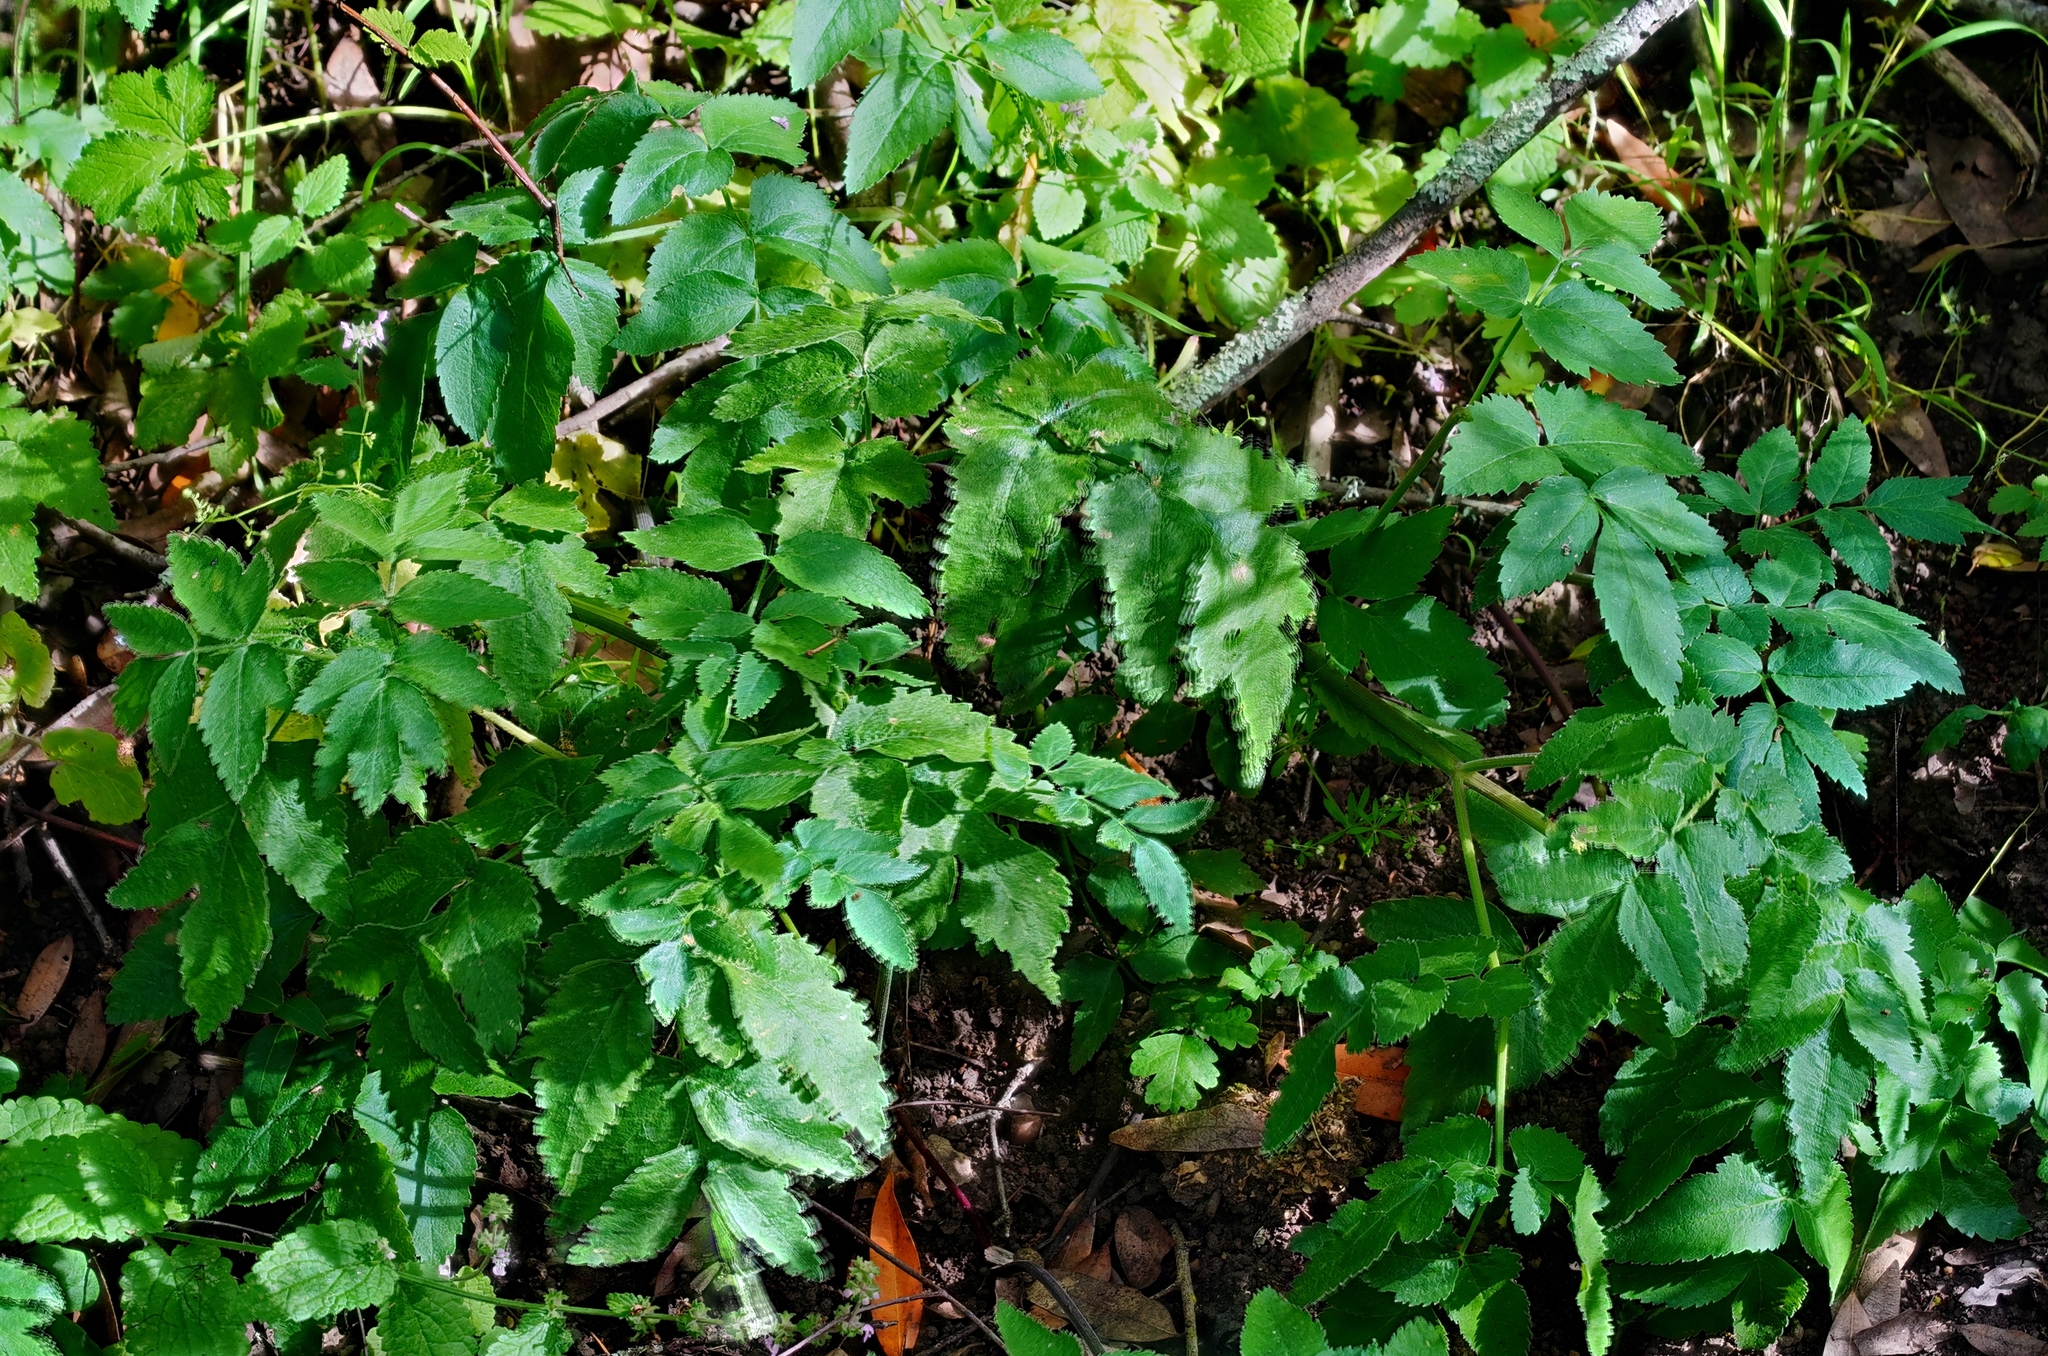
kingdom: Plantae
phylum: Tracheophyta
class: Magnoliopsida
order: Apiales
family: Apiaceae
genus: Angelica
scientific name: Angelica californica
